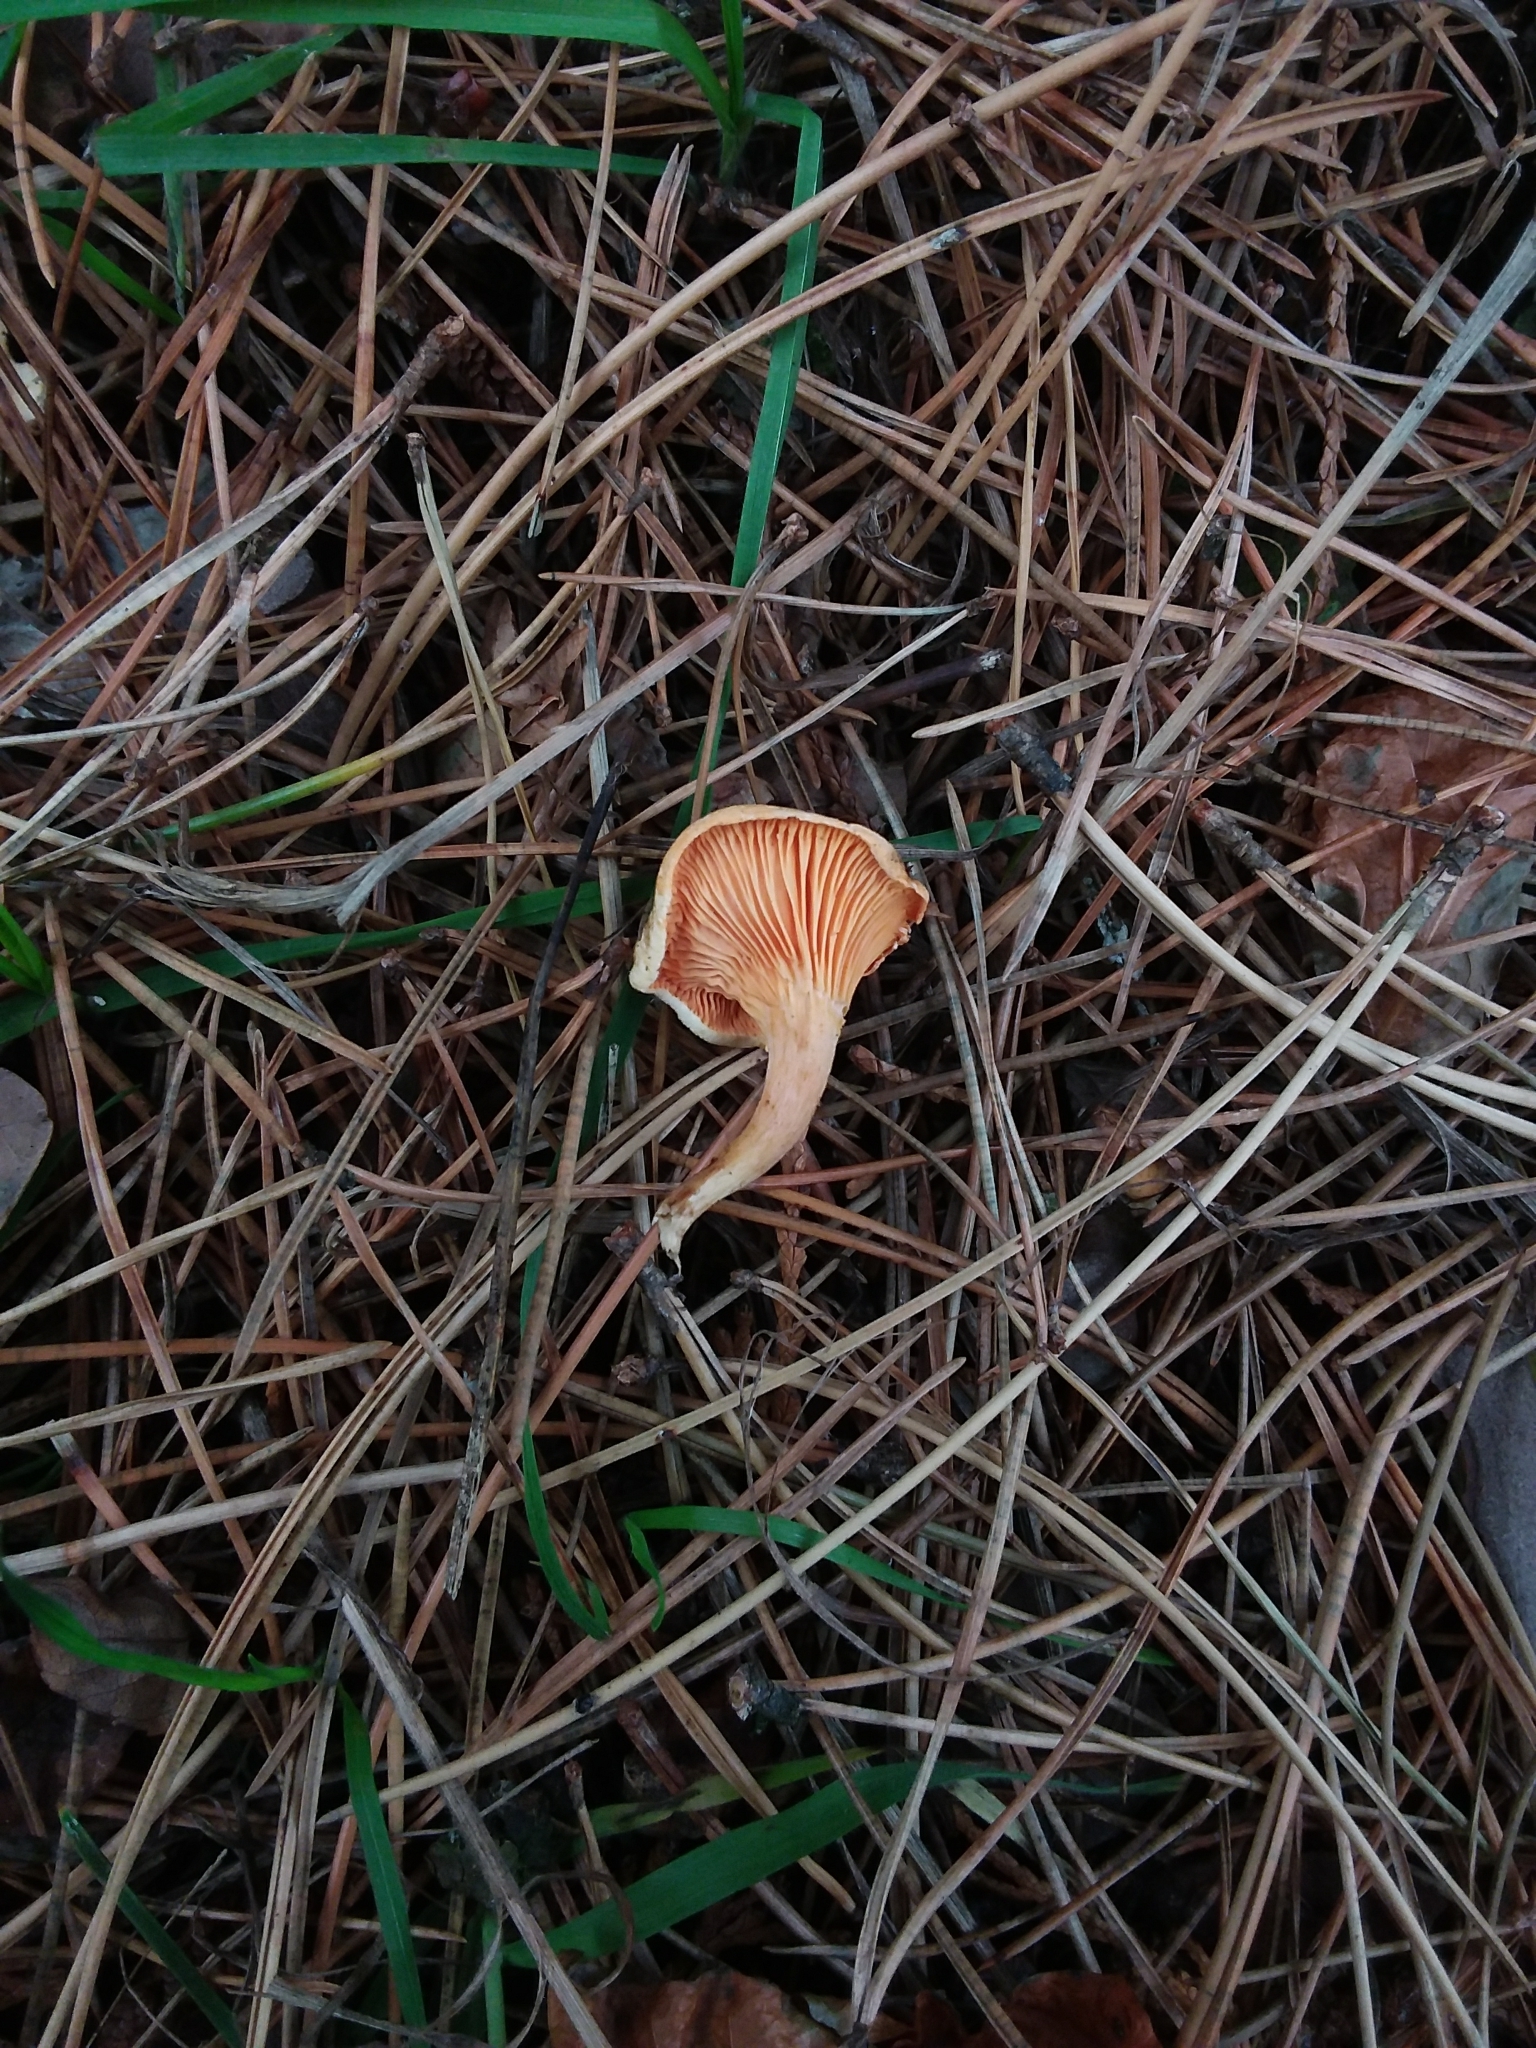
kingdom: Fungi
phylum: Basidiomycota
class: Agaricomycetes
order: Boletales
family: Hygrophoropsidaceae
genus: Hygrophoropsis
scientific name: Hygrophoropsis aurantiaca
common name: False chanterelle
